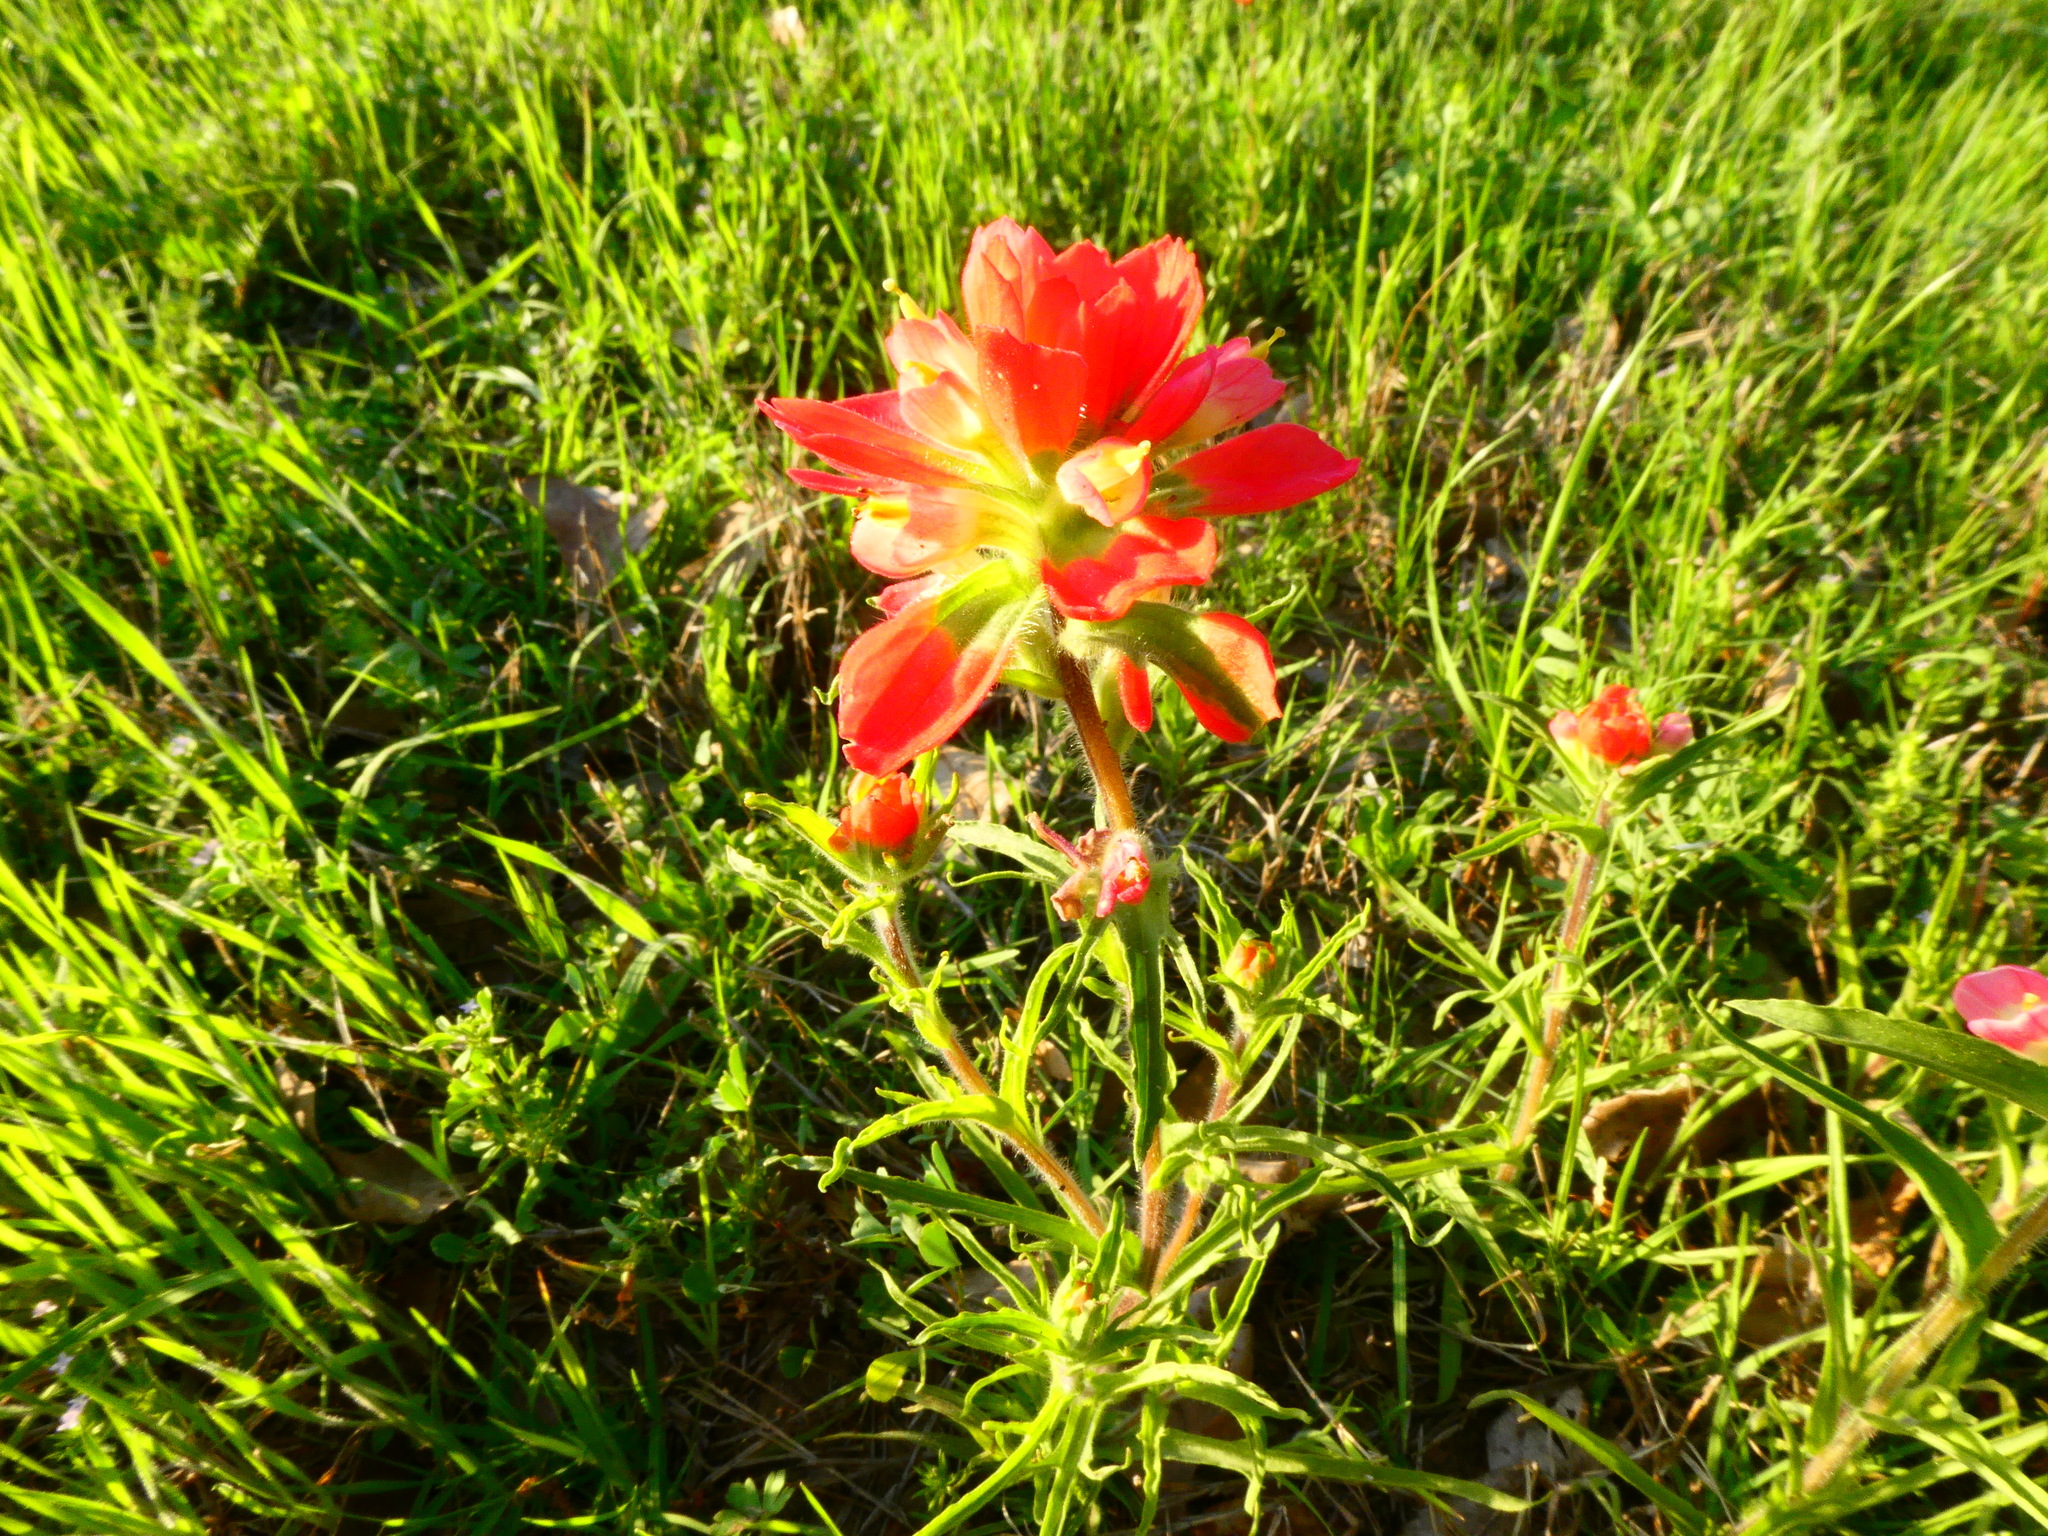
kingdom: Plantae
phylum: Tracheophyta
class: Magnoliopsida
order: Lamiales
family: Orobanchaceae
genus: Castilleja
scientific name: Castilleja indivisa
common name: Texas paintbrush
